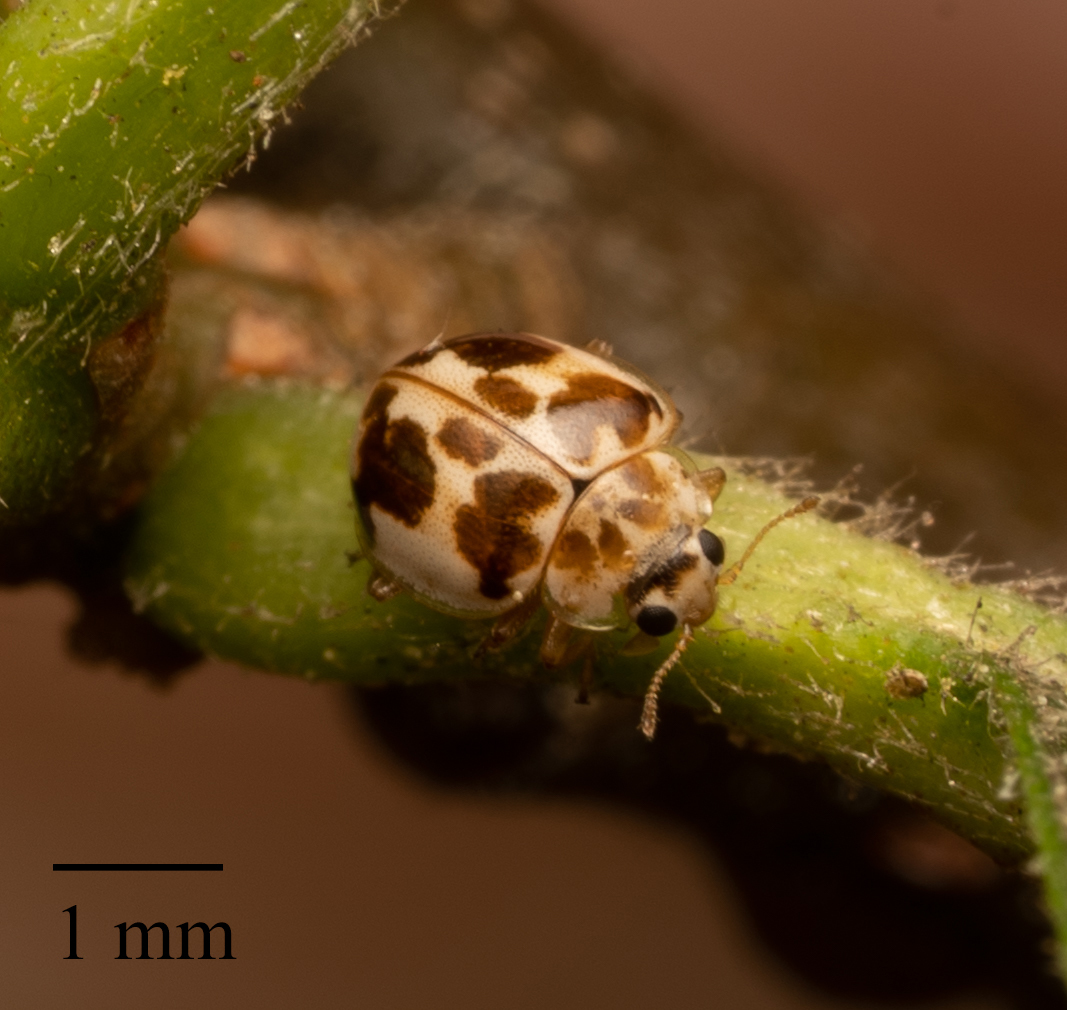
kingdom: Animalia
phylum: Arthropoda
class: Insecta
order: Coleoptera
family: Coccinellidae
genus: Psyllobora
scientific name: Psyllobora vigintimaculata
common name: Ladybird beetle
